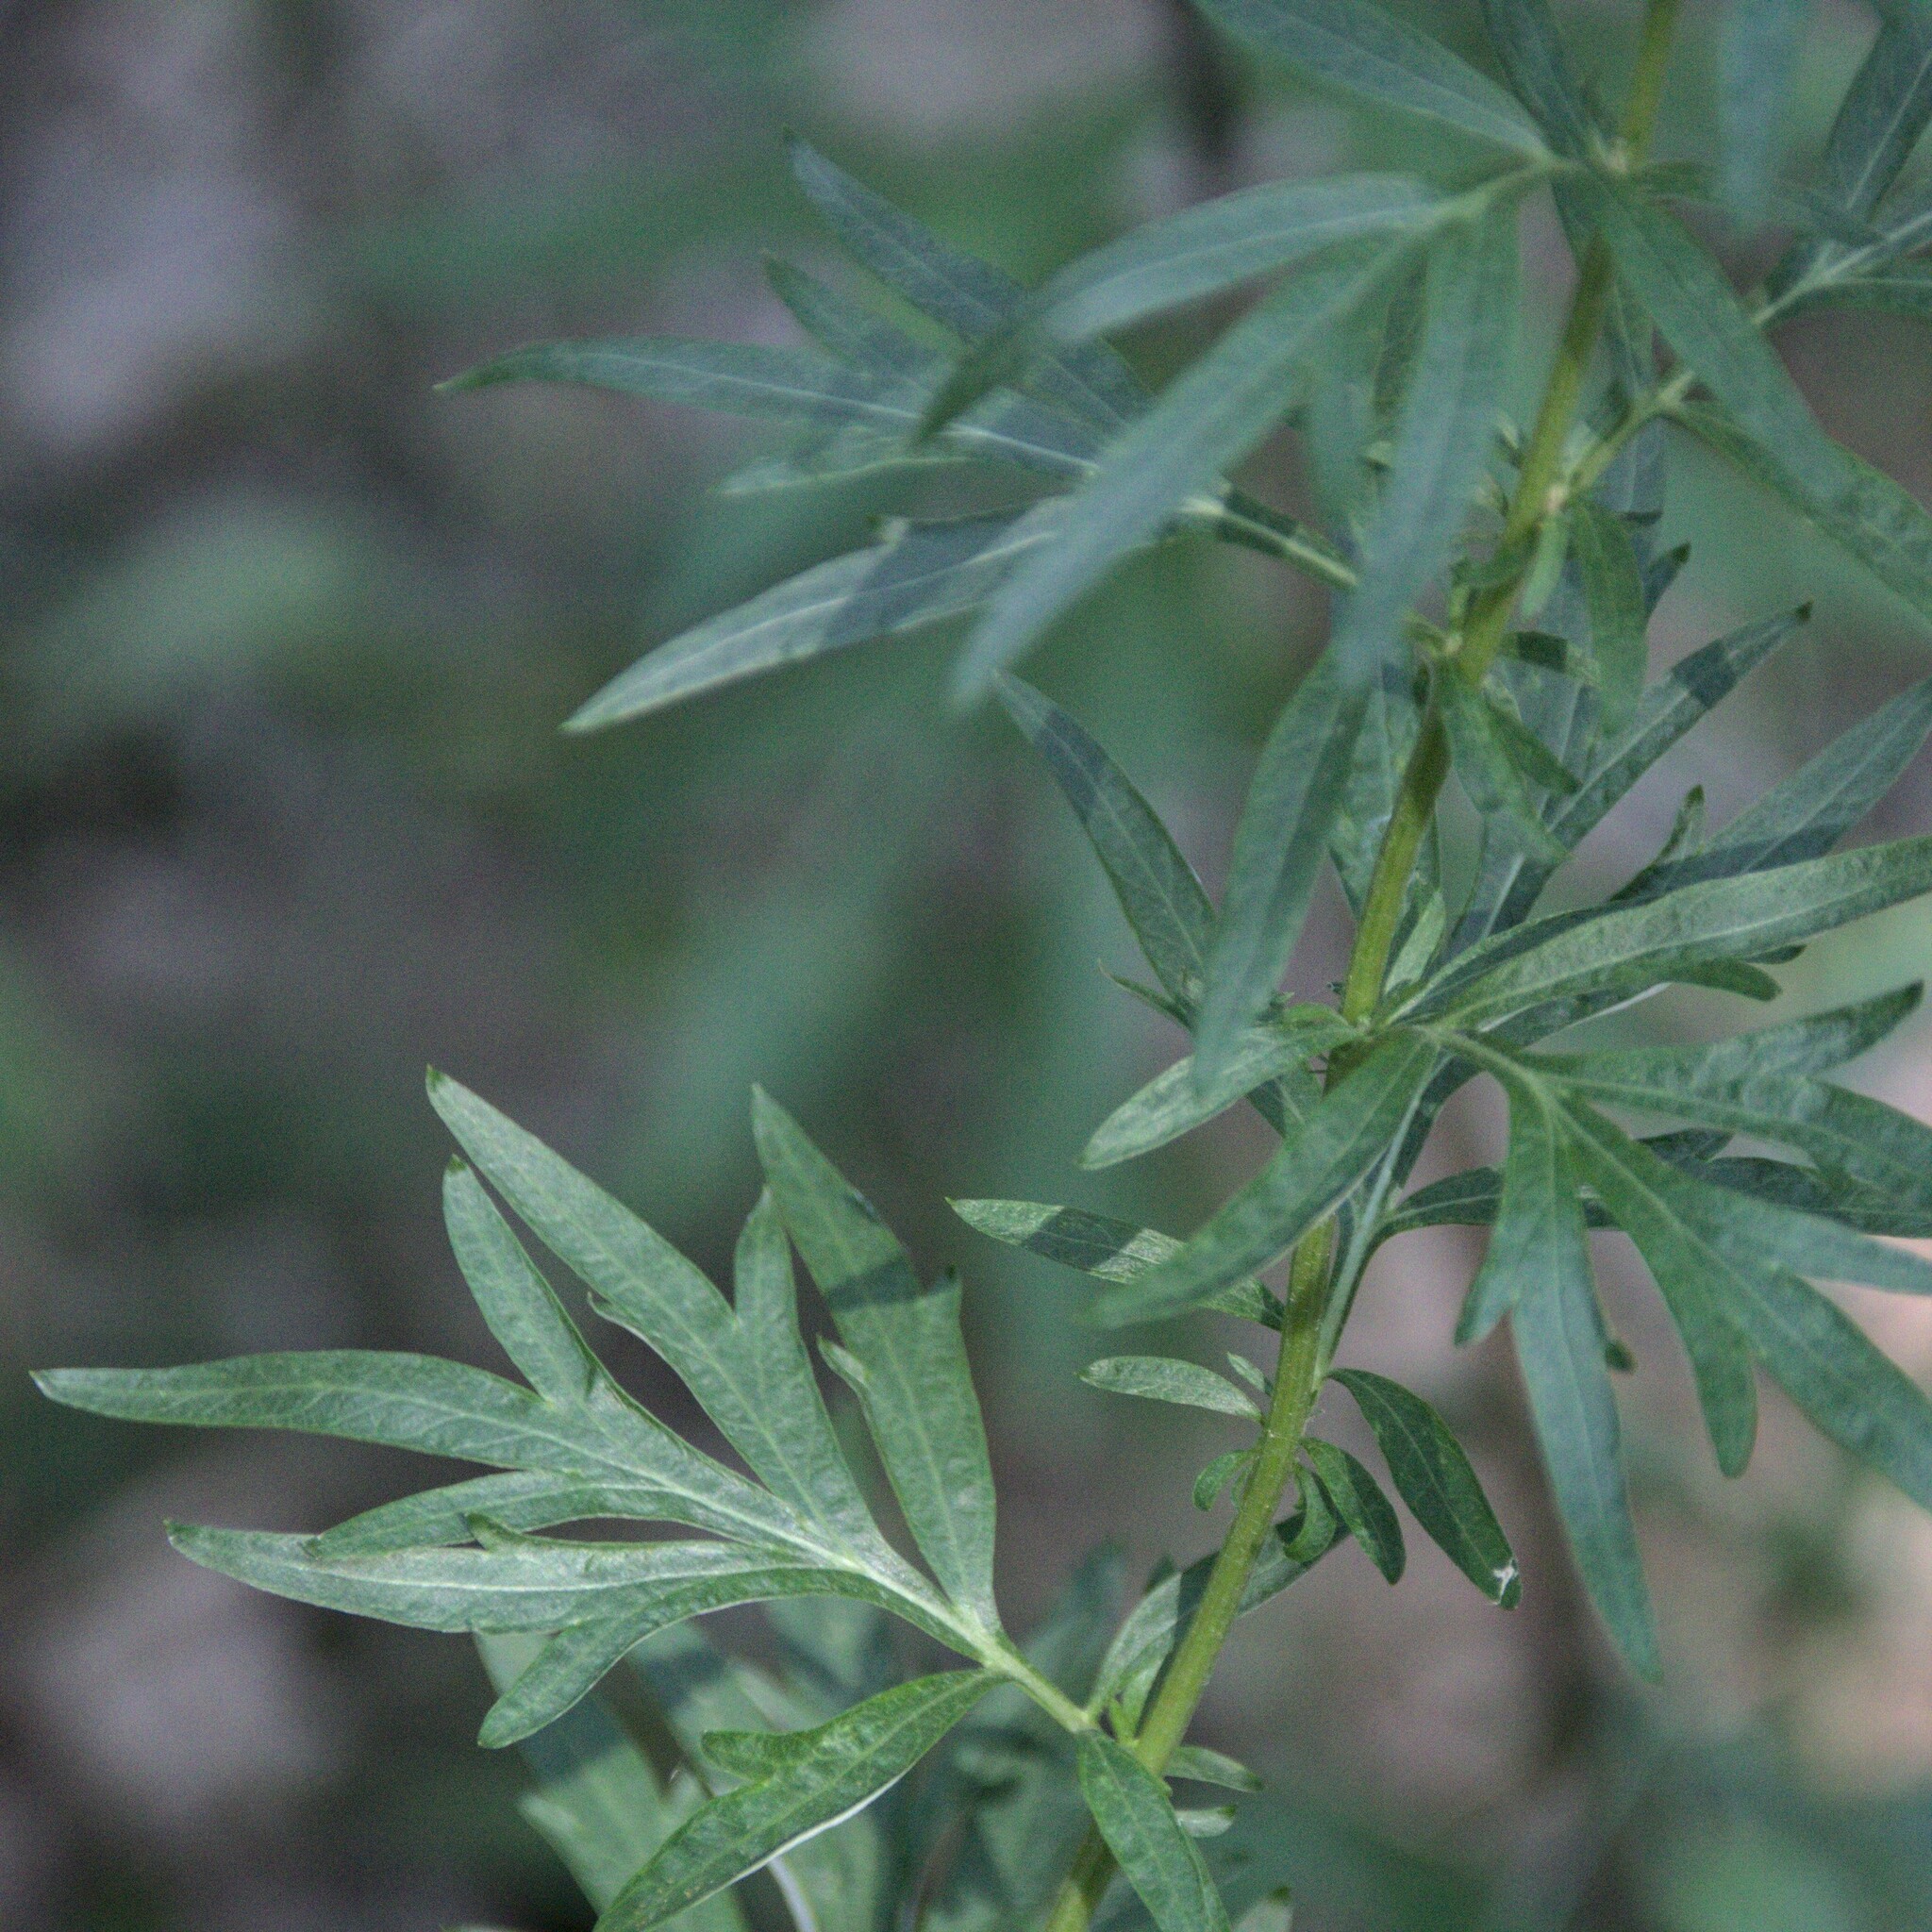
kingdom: Plantae
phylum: Tracheophyta
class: Magnoliopsida
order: Asterales
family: Asteraceae
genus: Artemisia
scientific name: Artemisia vulgaris
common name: Mugwort
